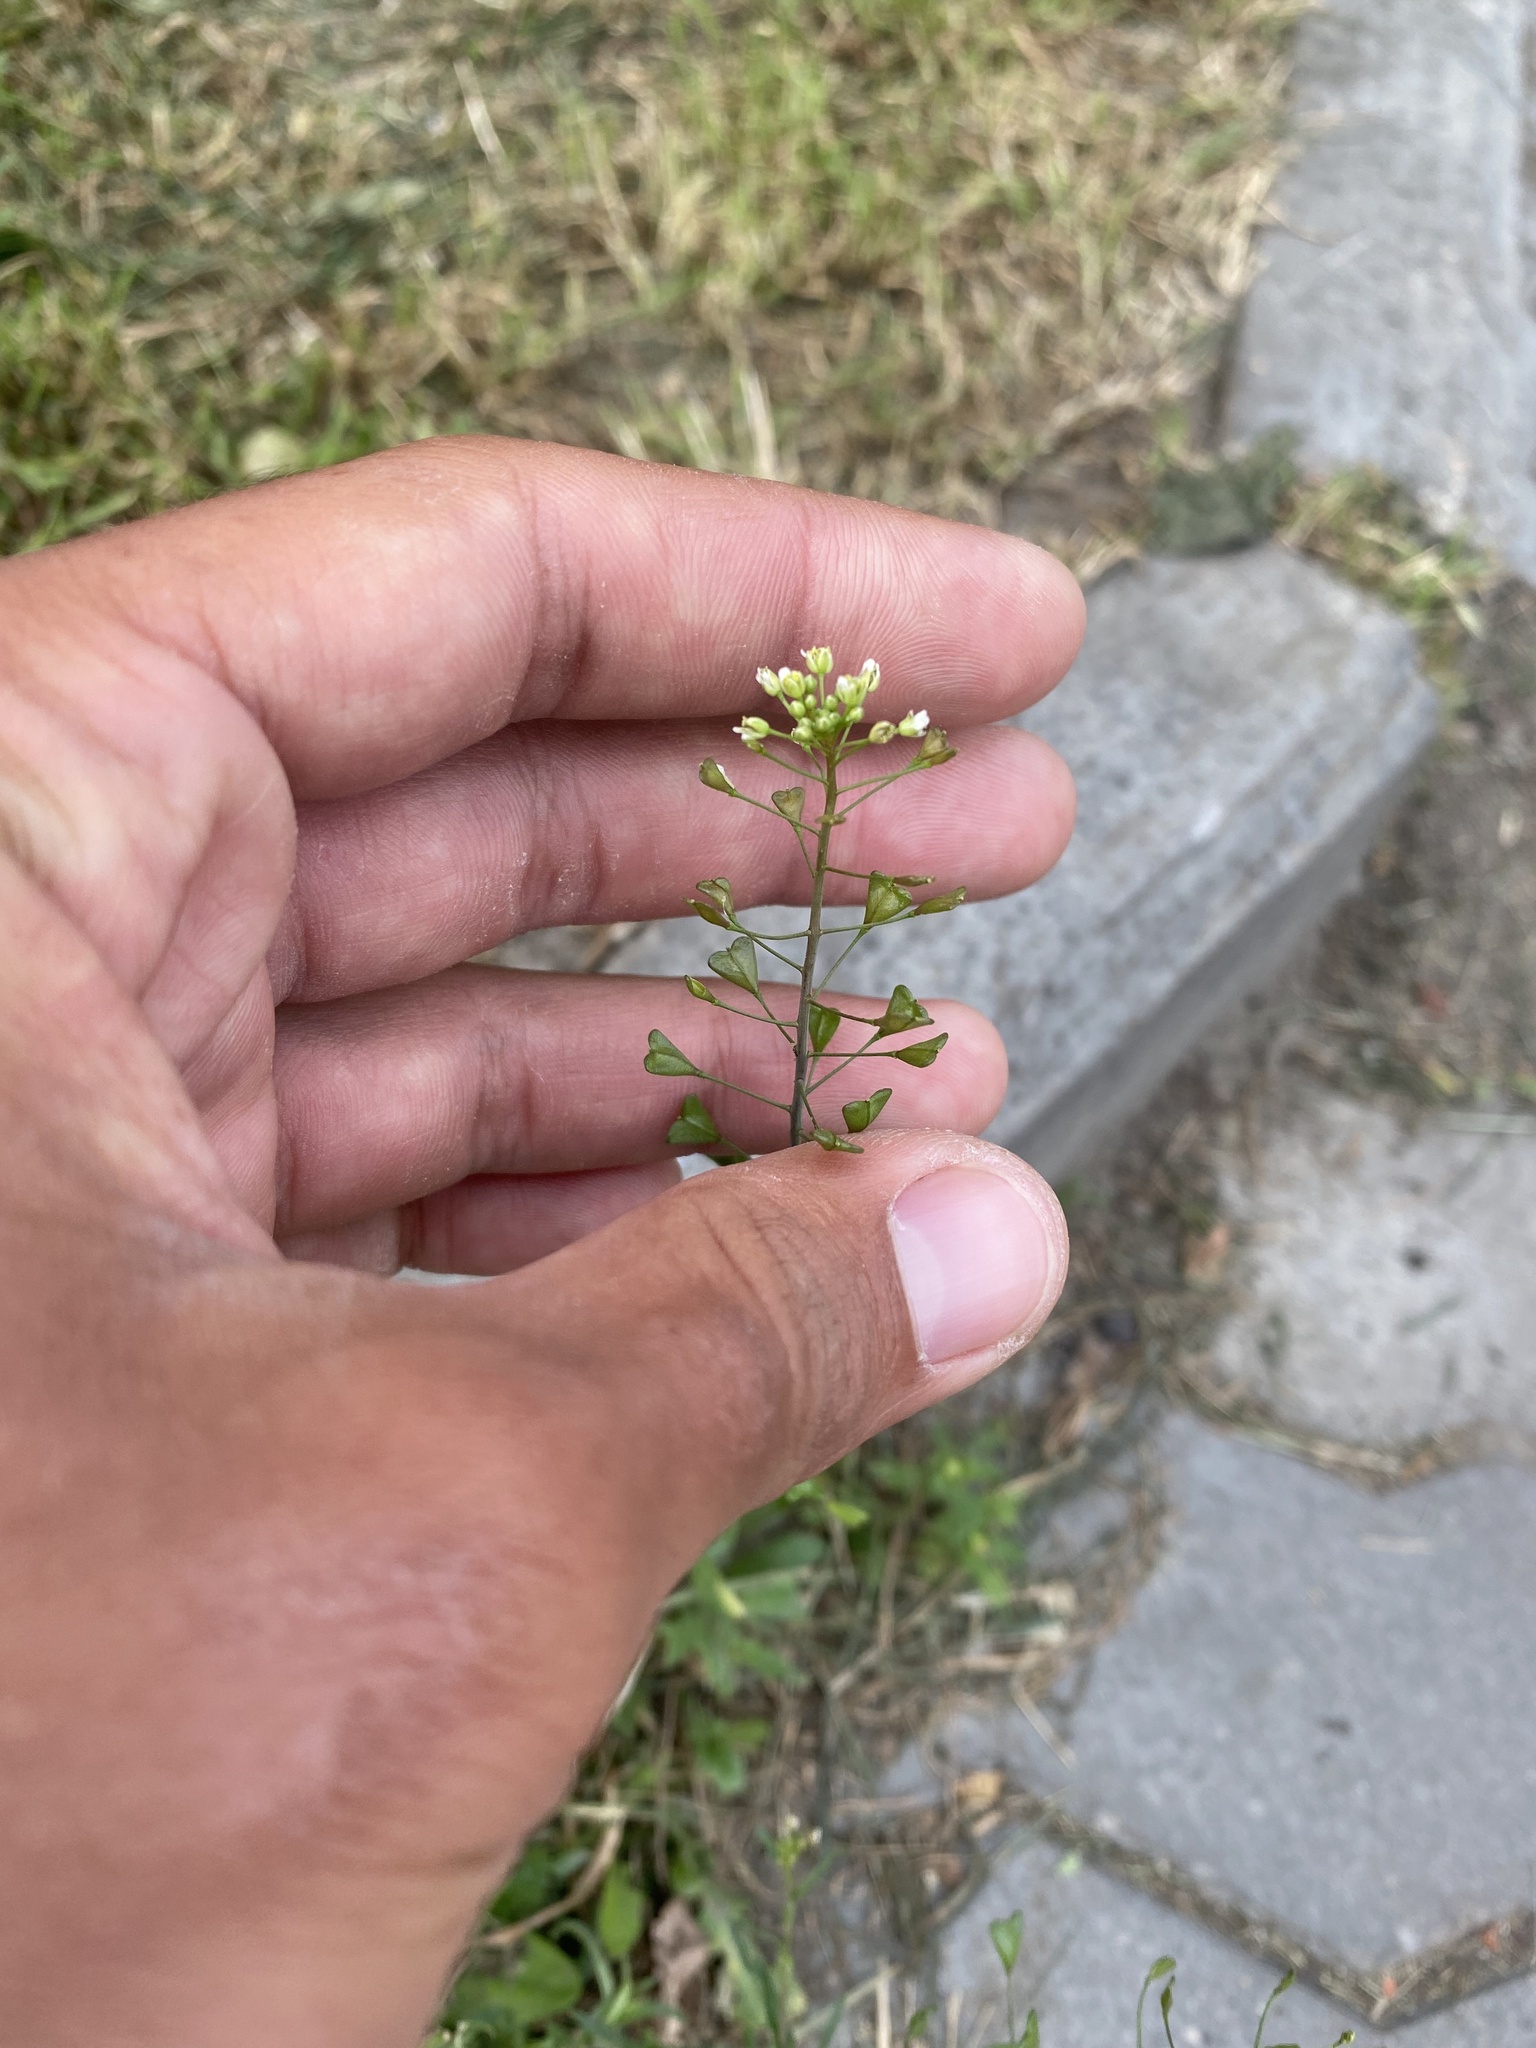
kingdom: Plantae
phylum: Tracheophyta
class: Magnoliopsida
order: Brassicales
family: Brassicaceae
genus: Capsella
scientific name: Capsella bursa-pastoris
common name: Shepherd's purse
